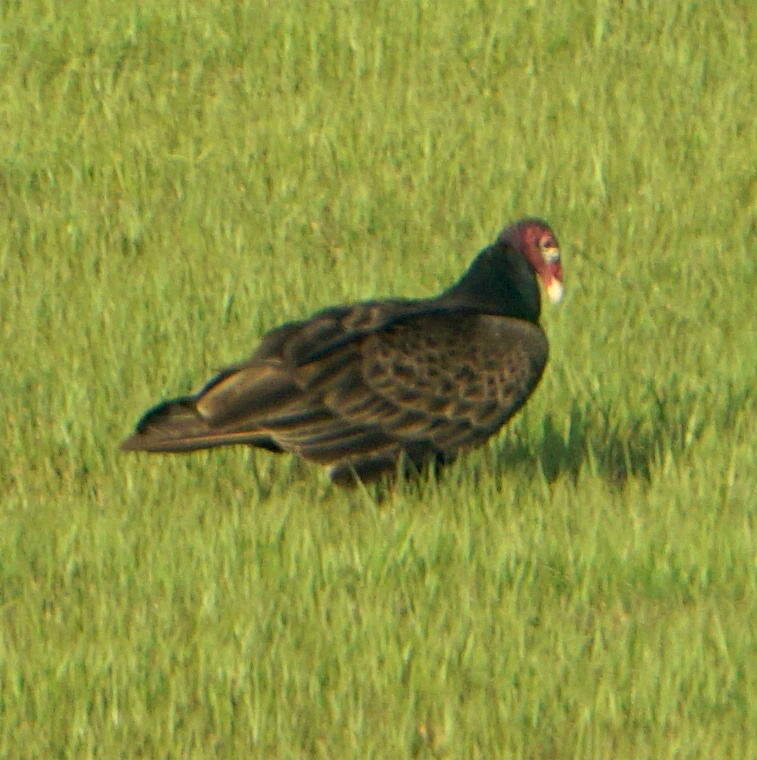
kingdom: Animalia
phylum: Chordata
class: Aves
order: Accipitriformes
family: Cathartidae
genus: Cathartes
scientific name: Cathartes aura
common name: Turkey vulture
